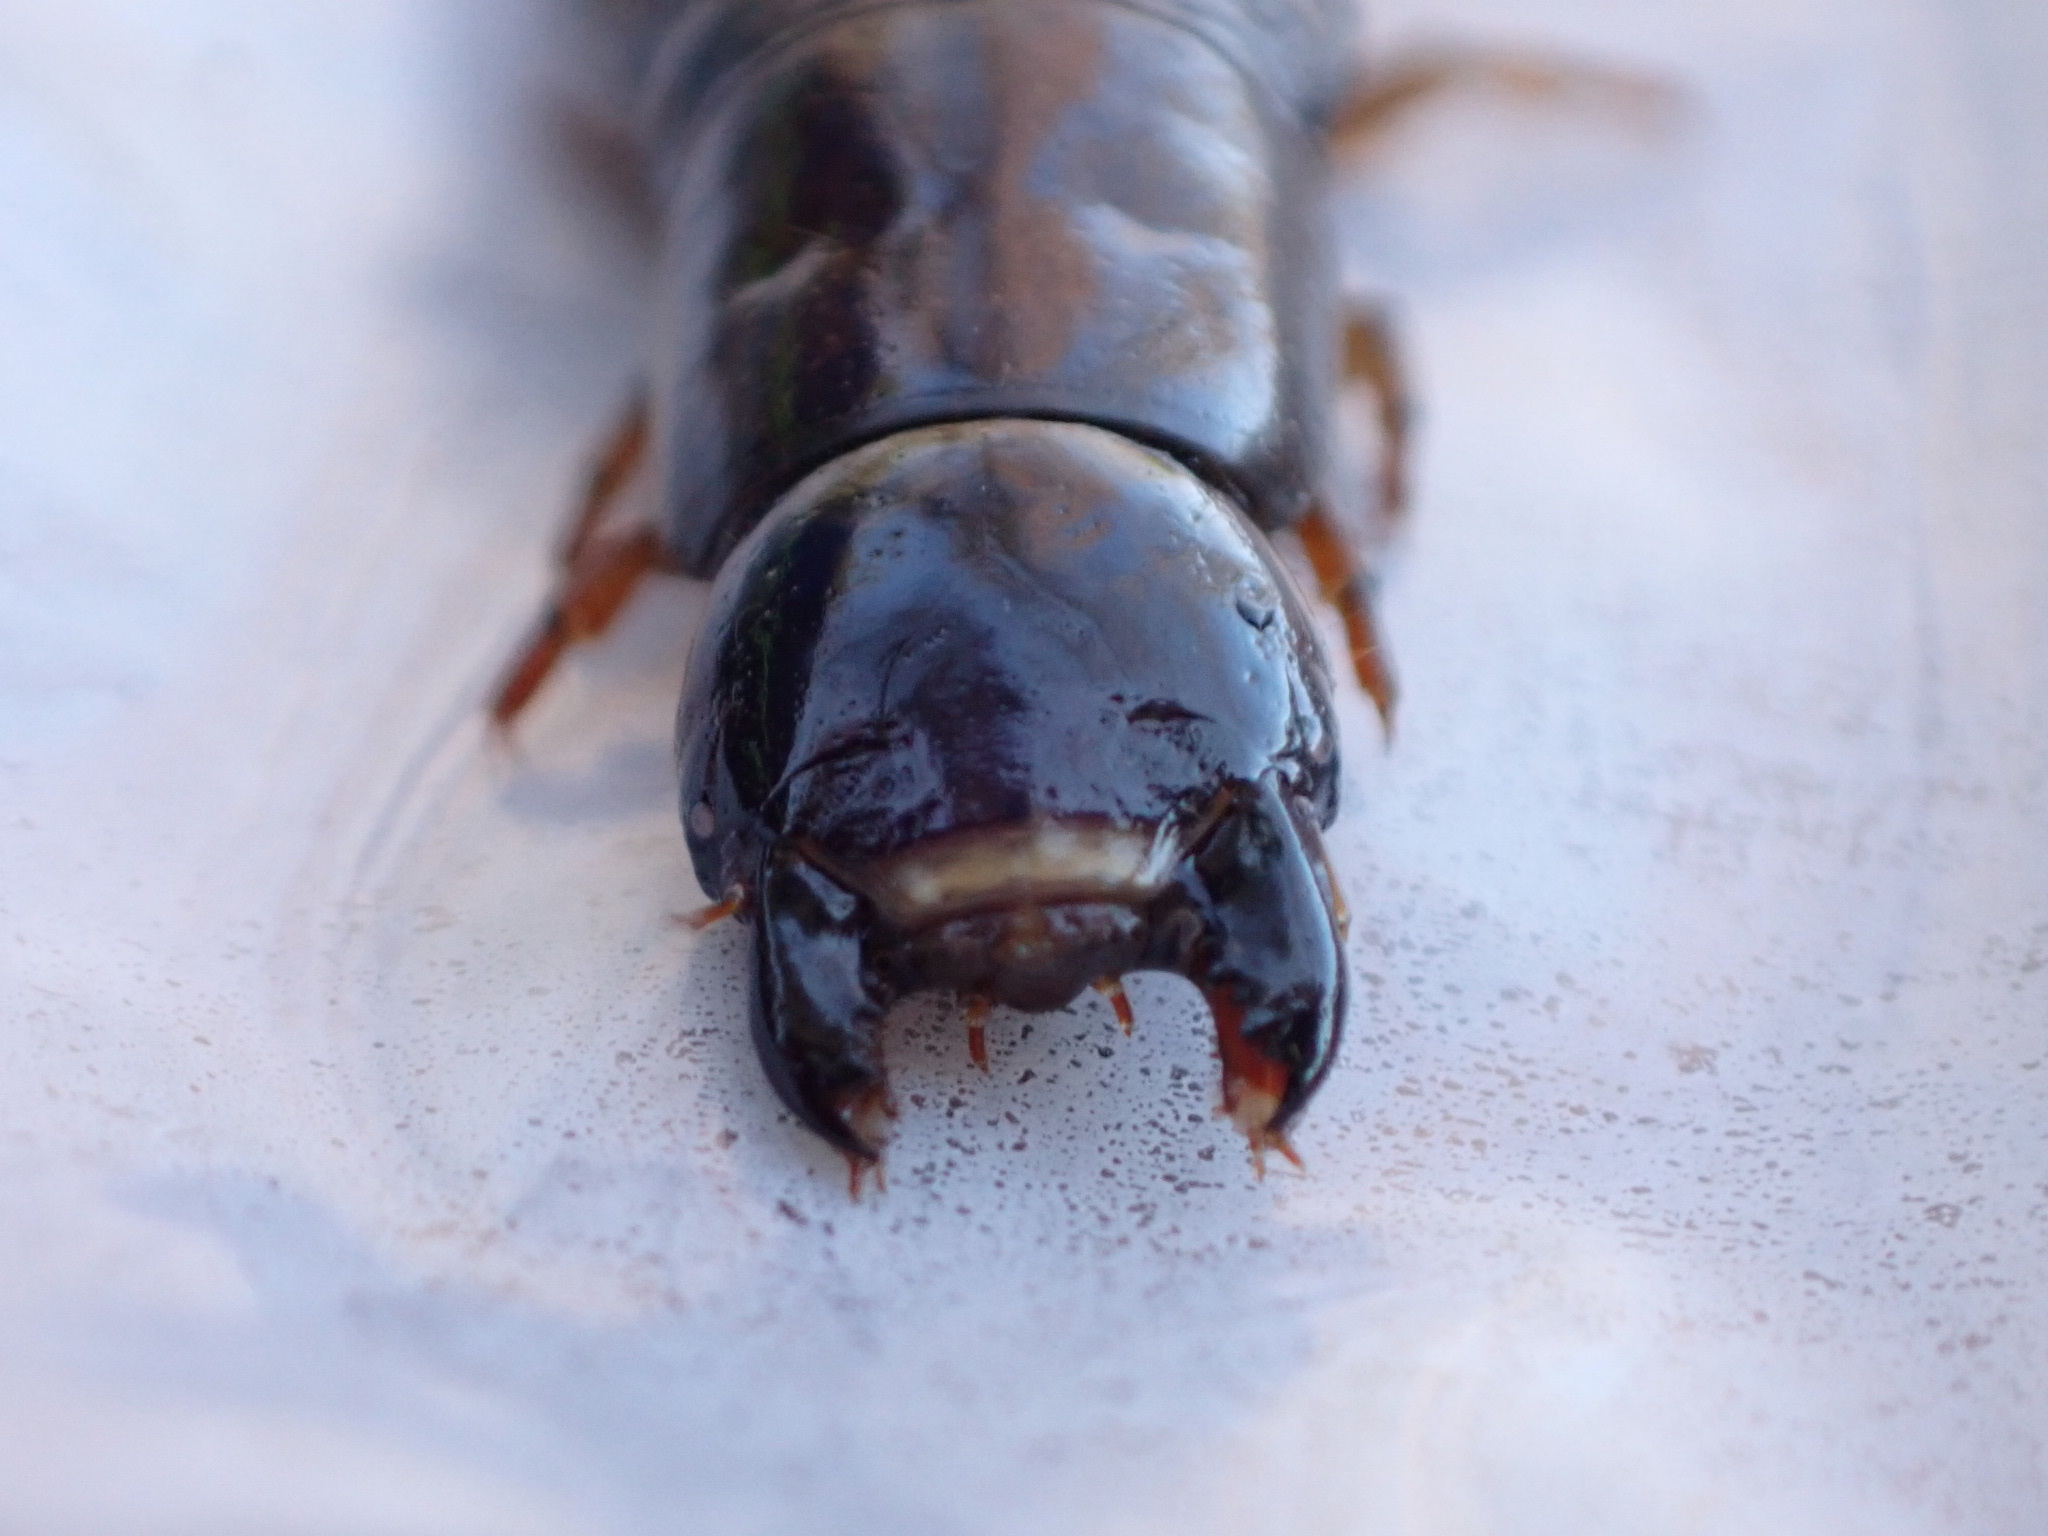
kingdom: Animalia
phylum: Arthropoda
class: Insecta
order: Megaloptera
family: Corydalidae
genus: Chauliodes
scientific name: Chauliodes rastricornis
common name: Spring fishfly
